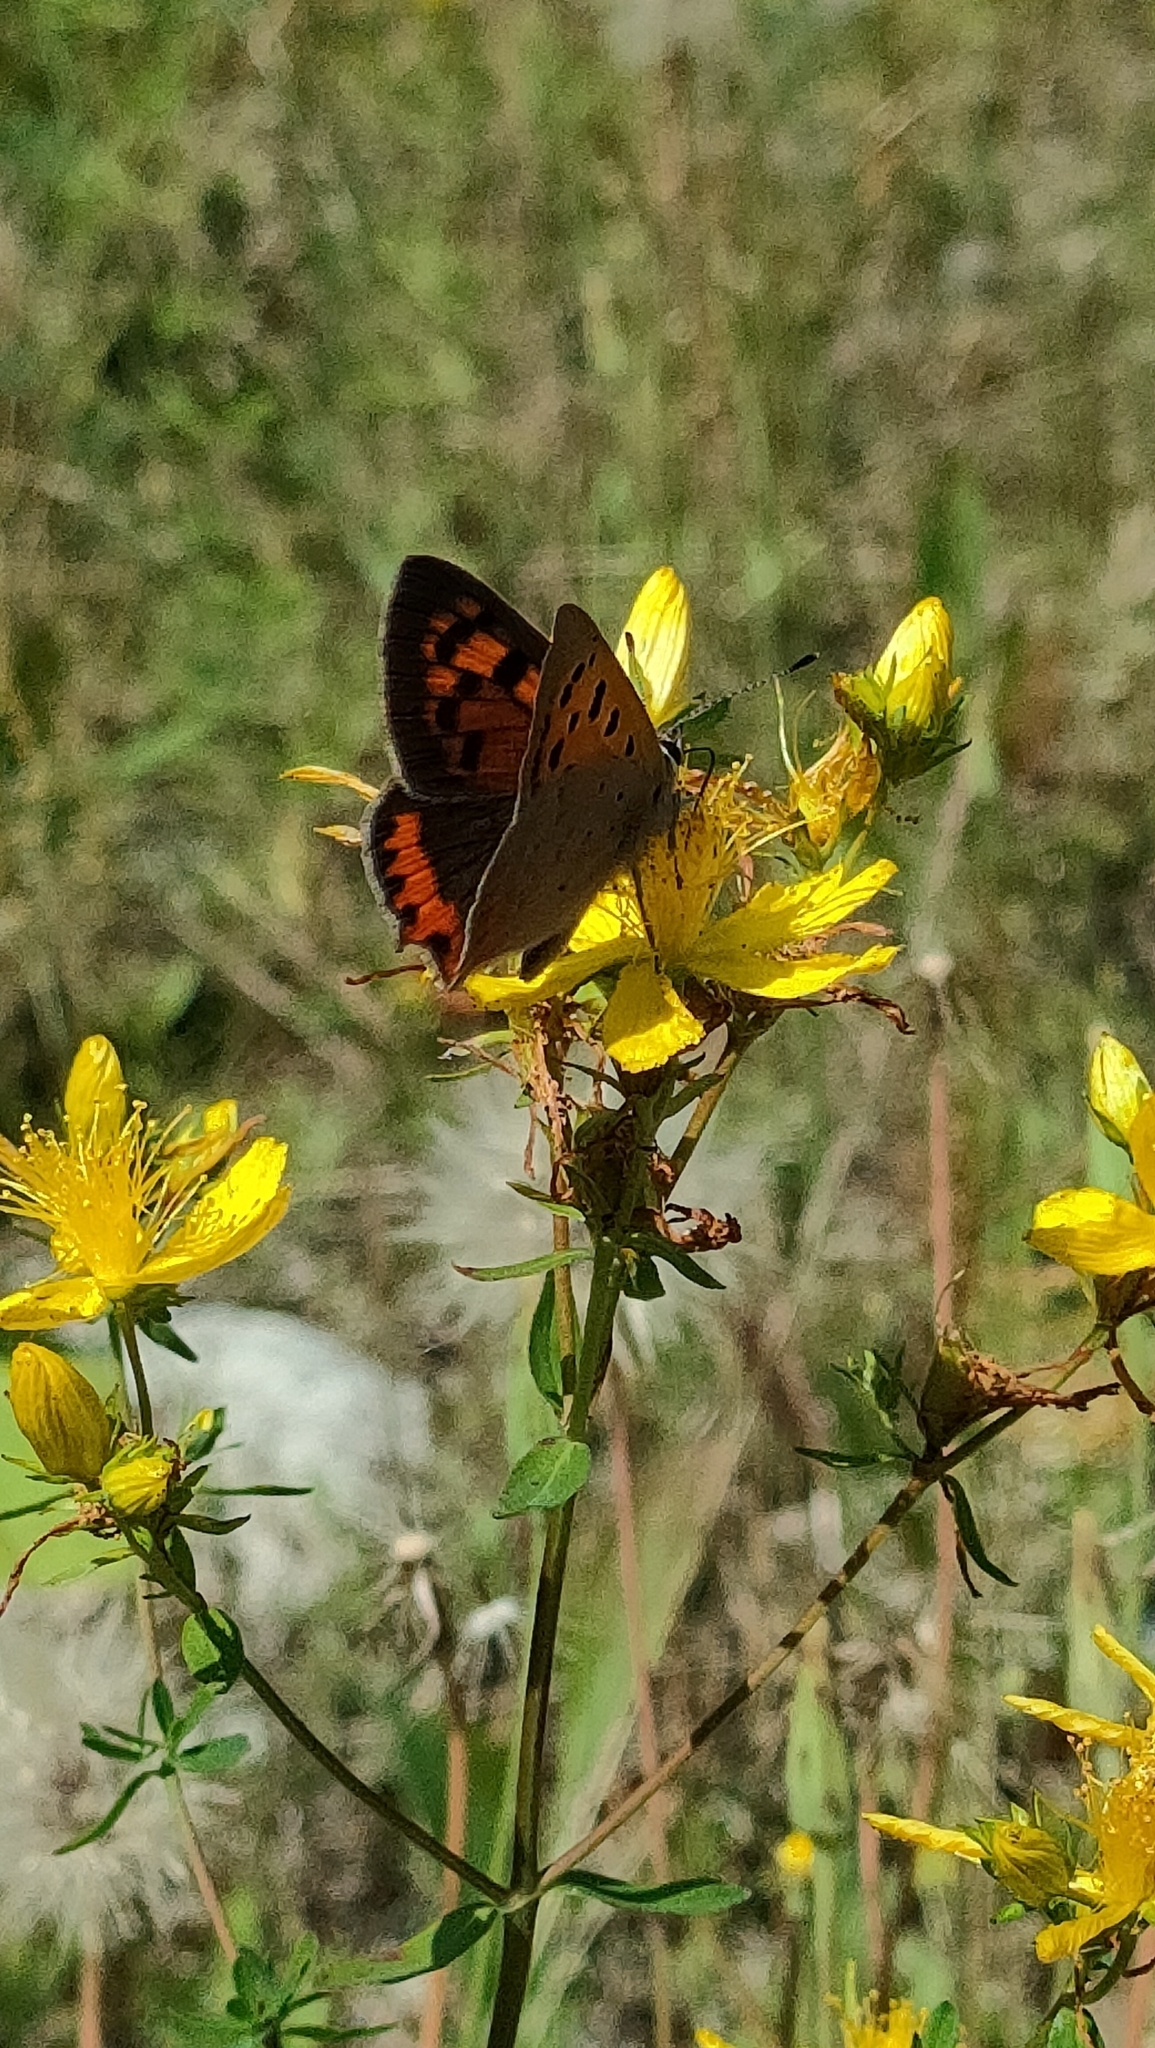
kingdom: Animalia
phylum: Arthropoda
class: Insecta
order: Lepidoptera
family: Lycaenidae
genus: Lycaena
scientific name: Lycaena phlaeas
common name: Small copper
